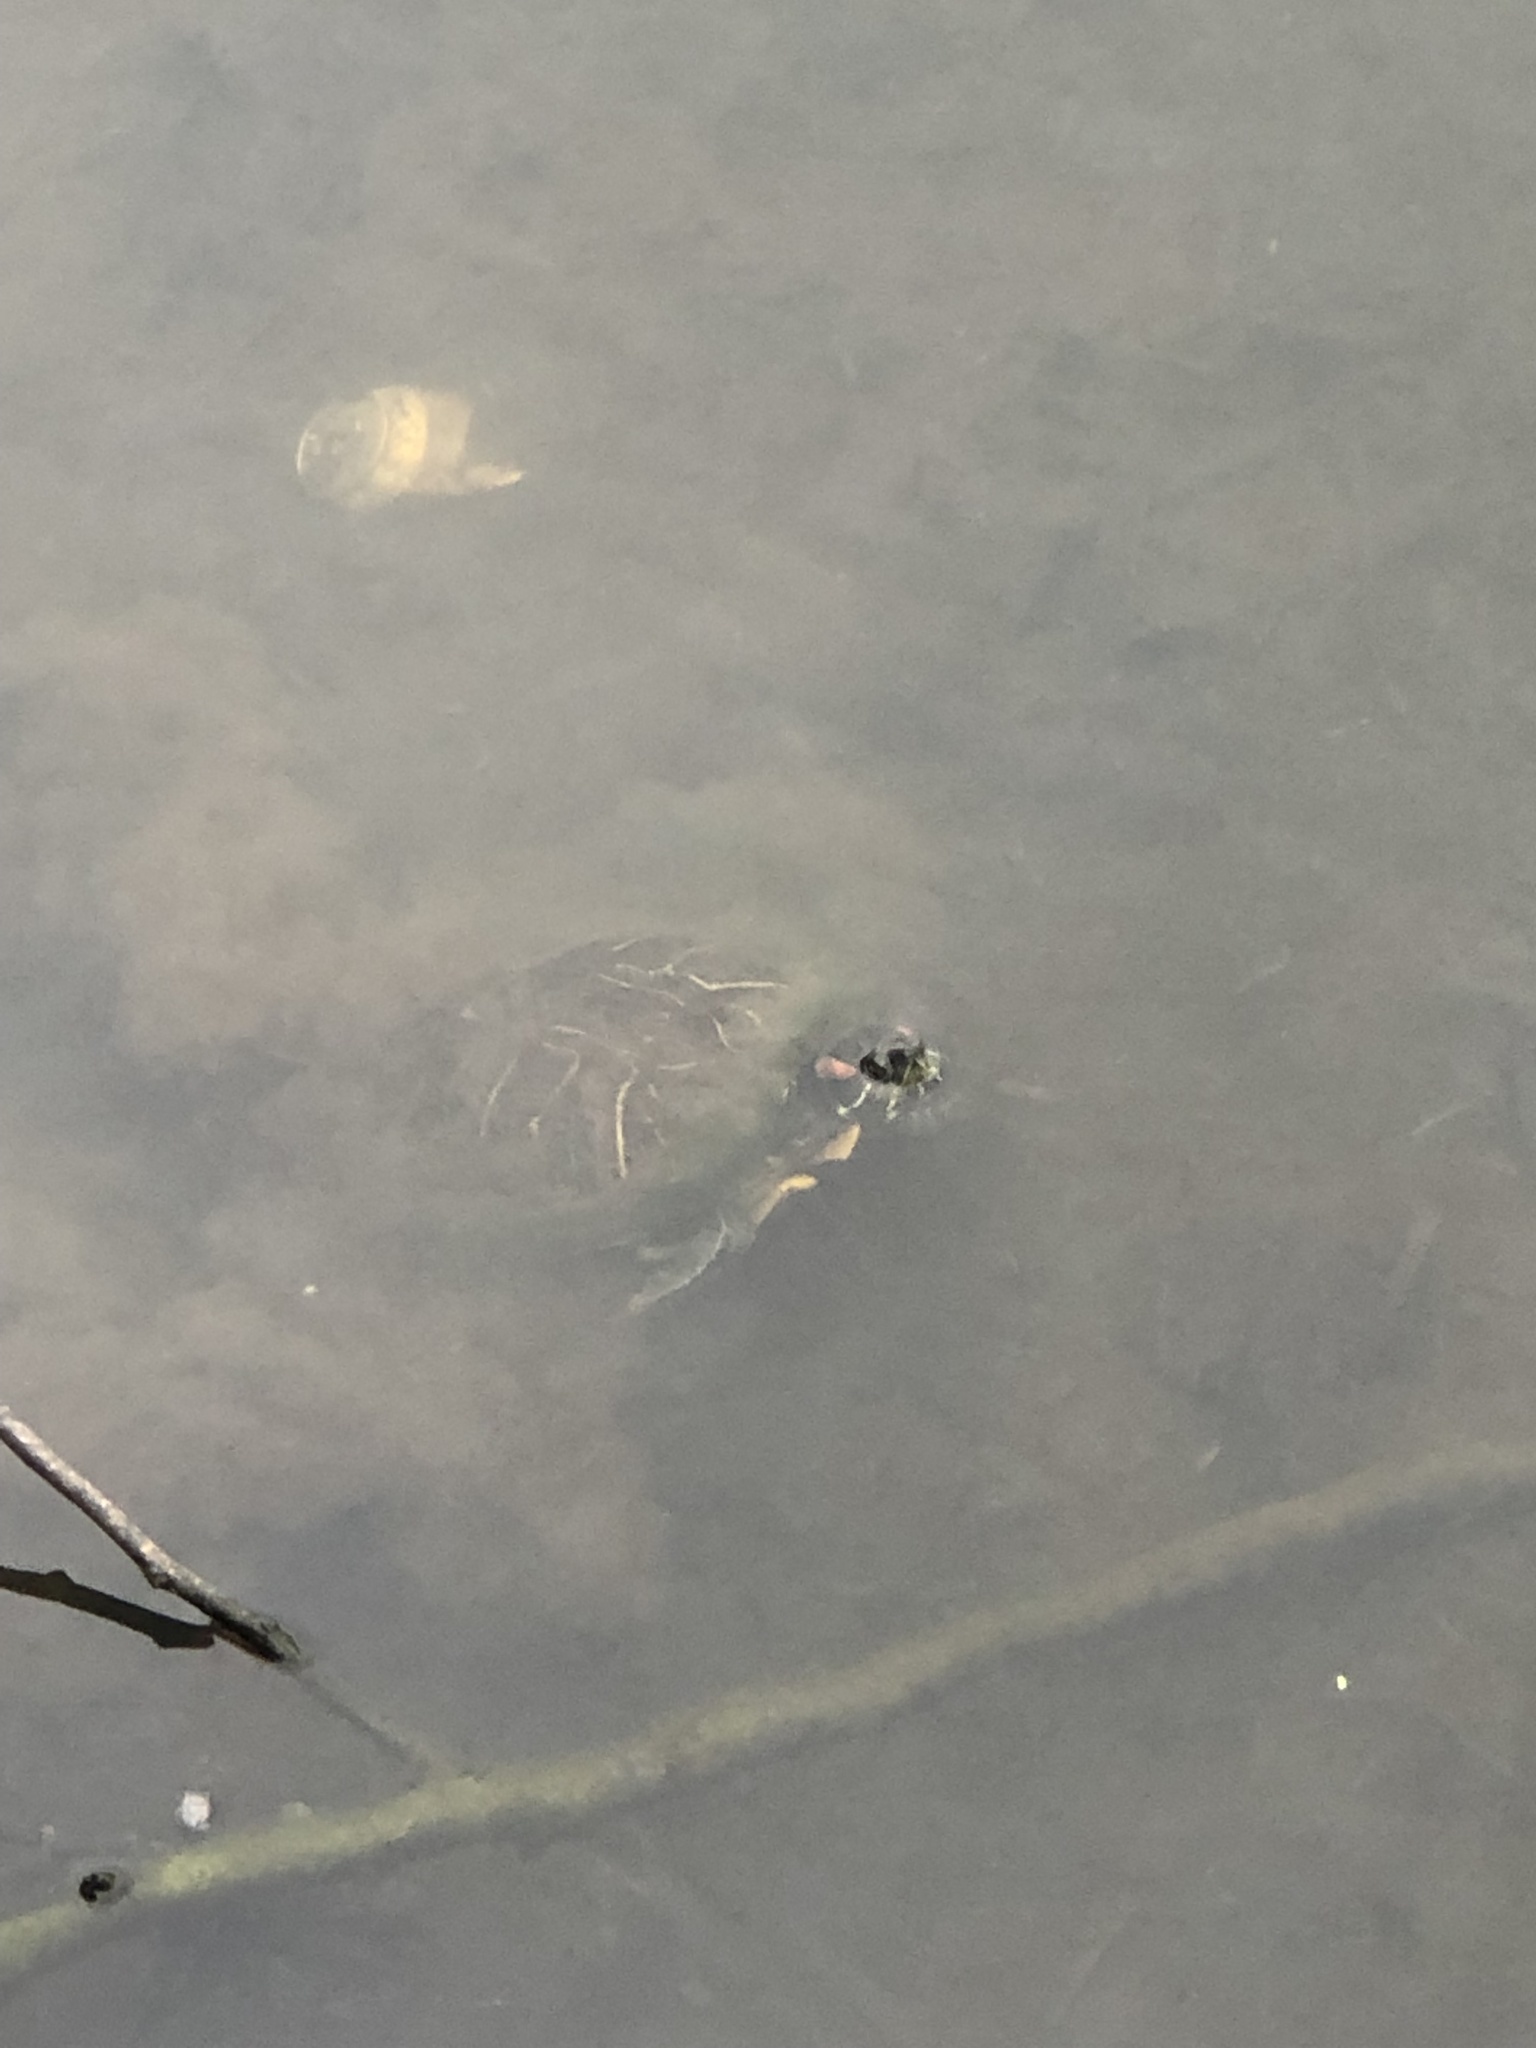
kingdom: Animalia
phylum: Chordata
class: Testudines
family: Emydidae
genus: Trachemys
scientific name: Trachemys scripta
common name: Slider
